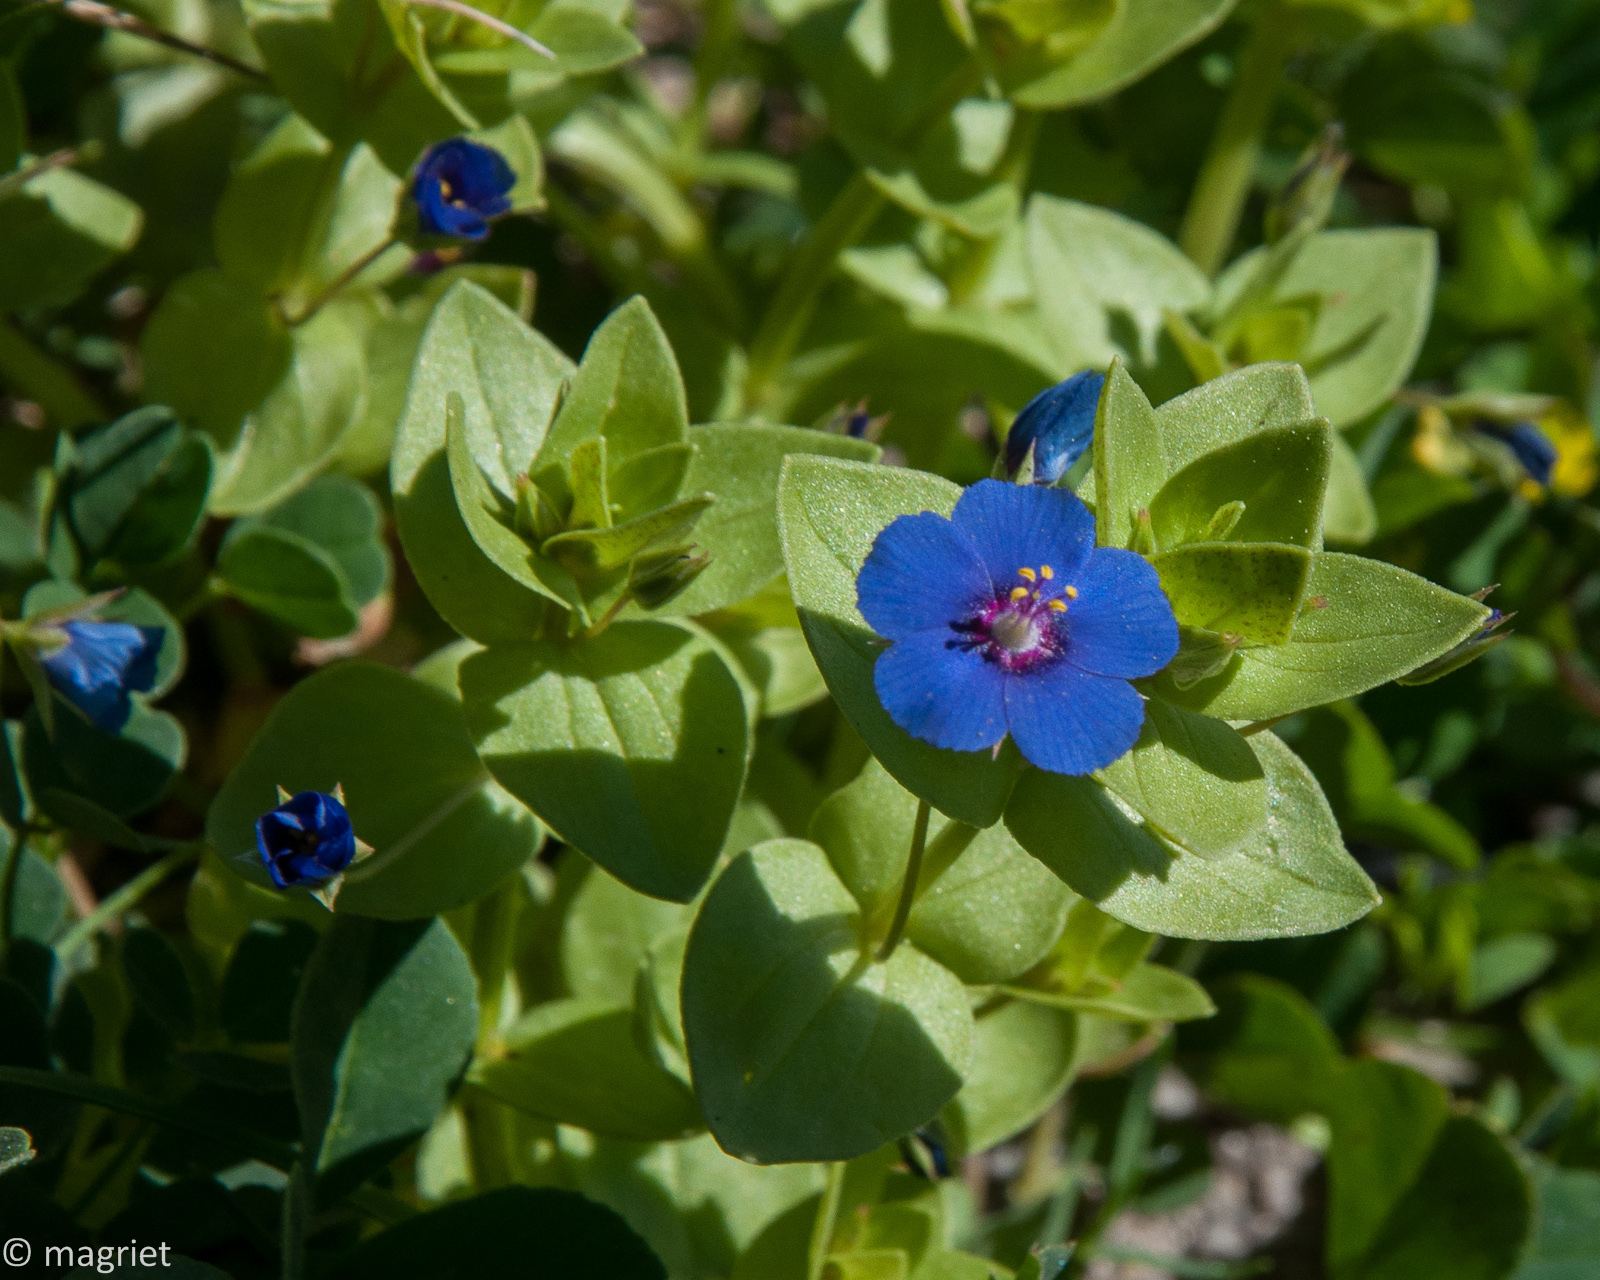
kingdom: Plantae
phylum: Tracheophyta
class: Magnoliopsida
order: Ericales
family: Primulaceae
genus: Lysimachia
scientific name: Lysimachia loeflingii
